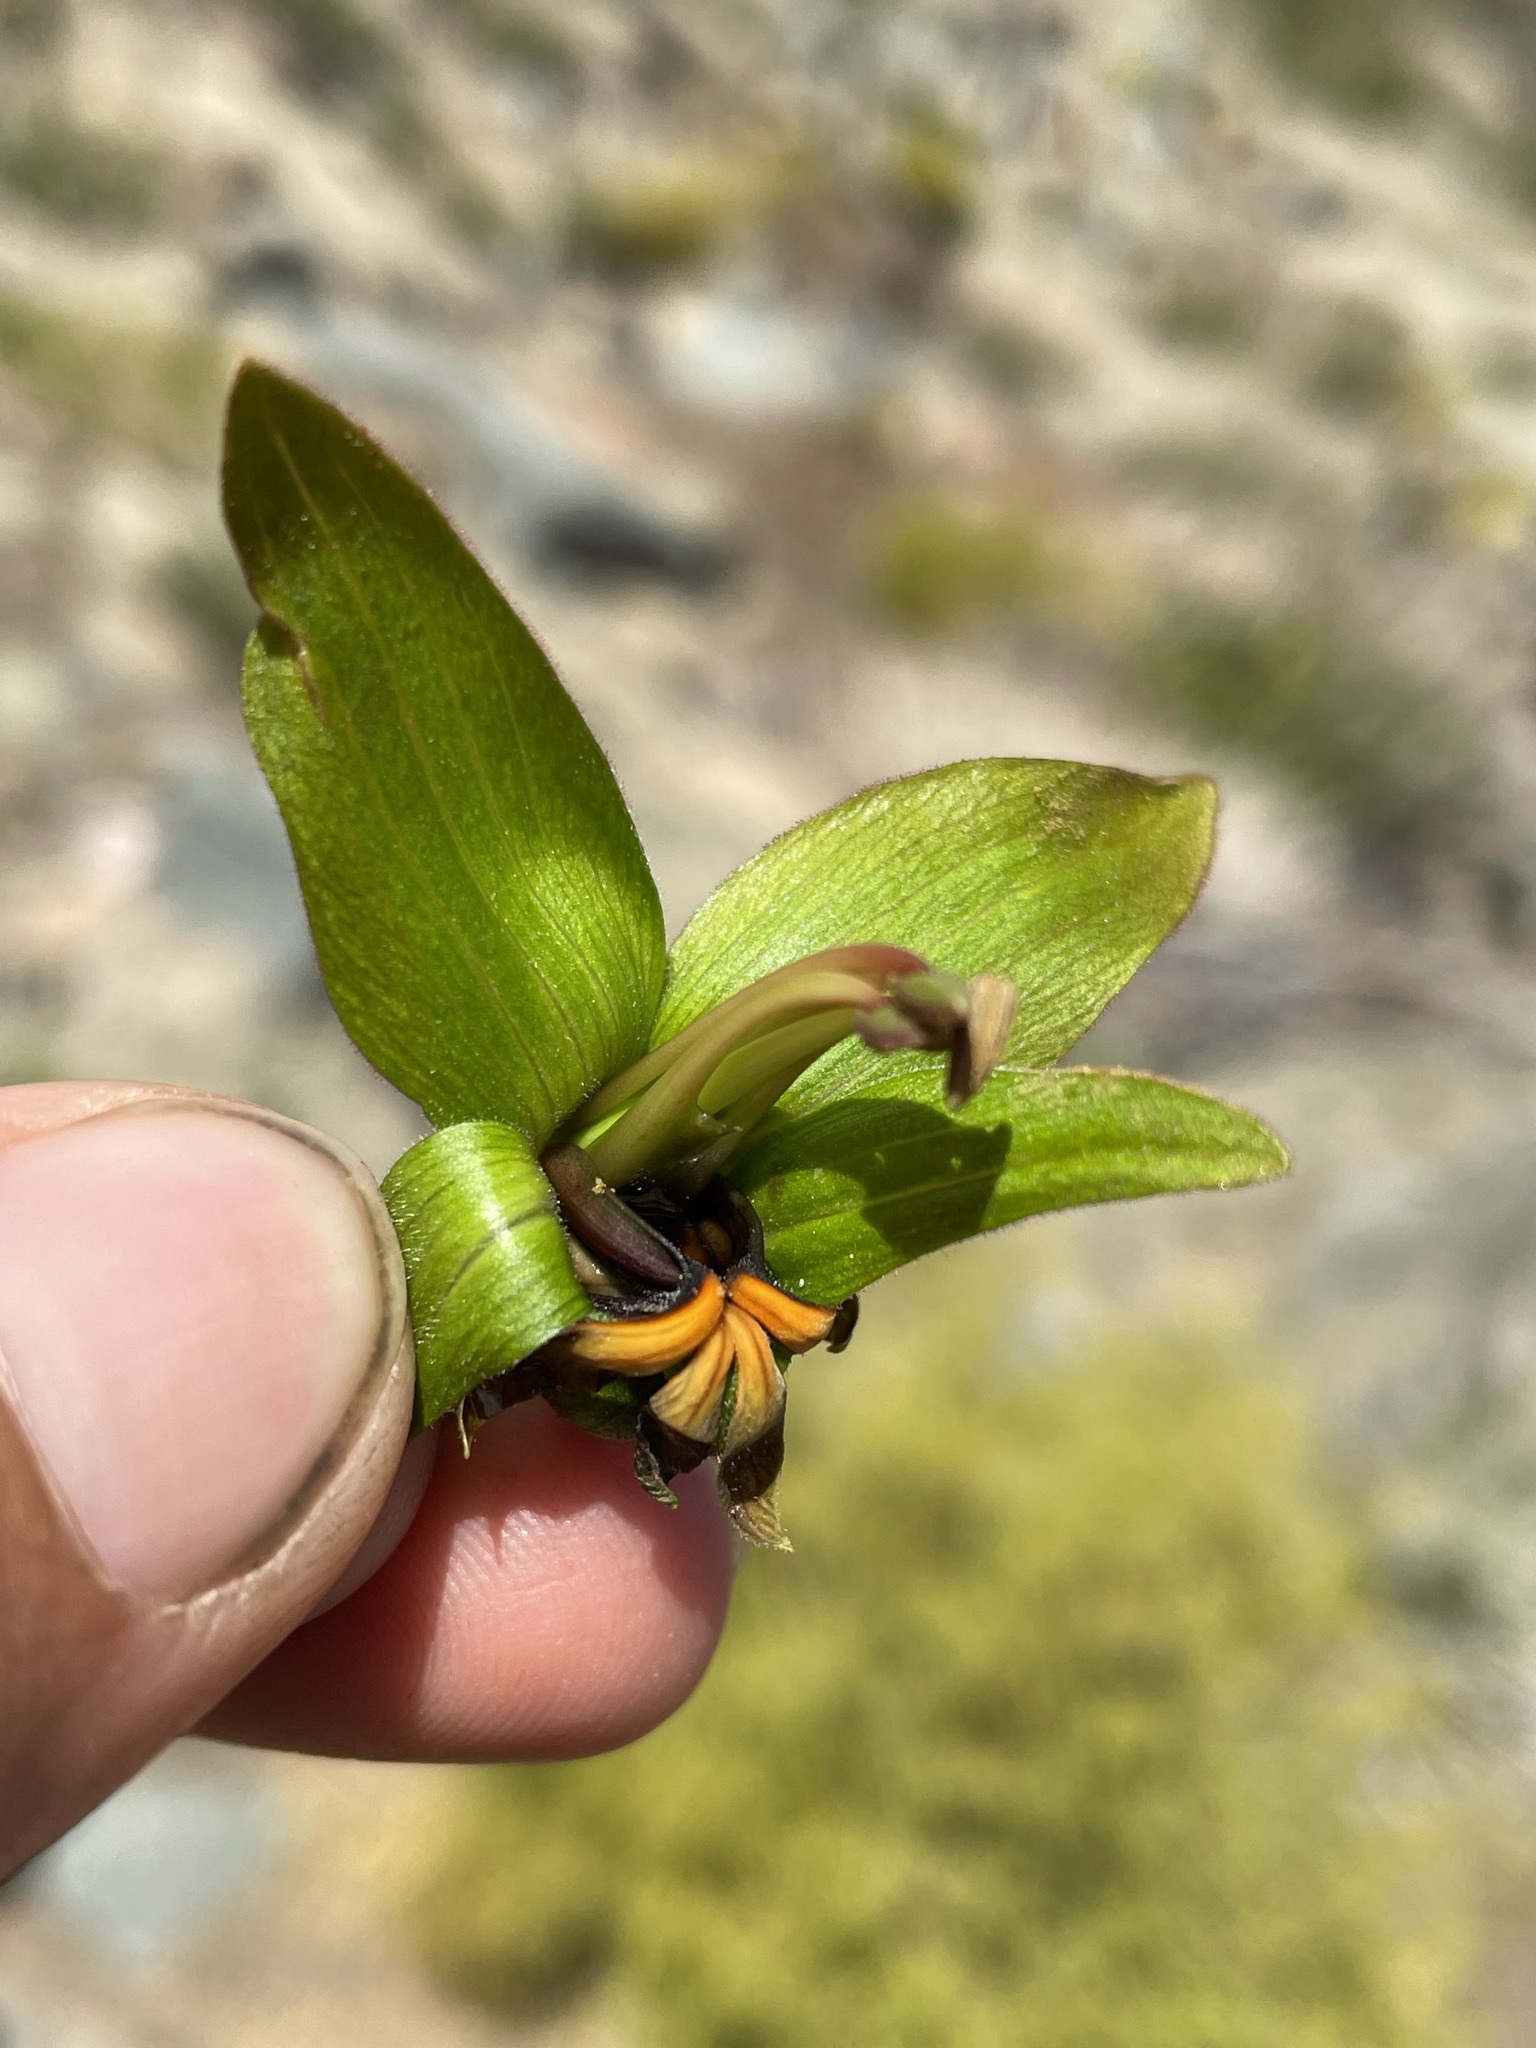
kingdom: Plantae
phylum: Tracheophyta
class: Magnoliopsida
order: Geraniales
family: Melianthaceae
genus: Melianthus
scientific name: Melianthus major
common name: Honey-flower
